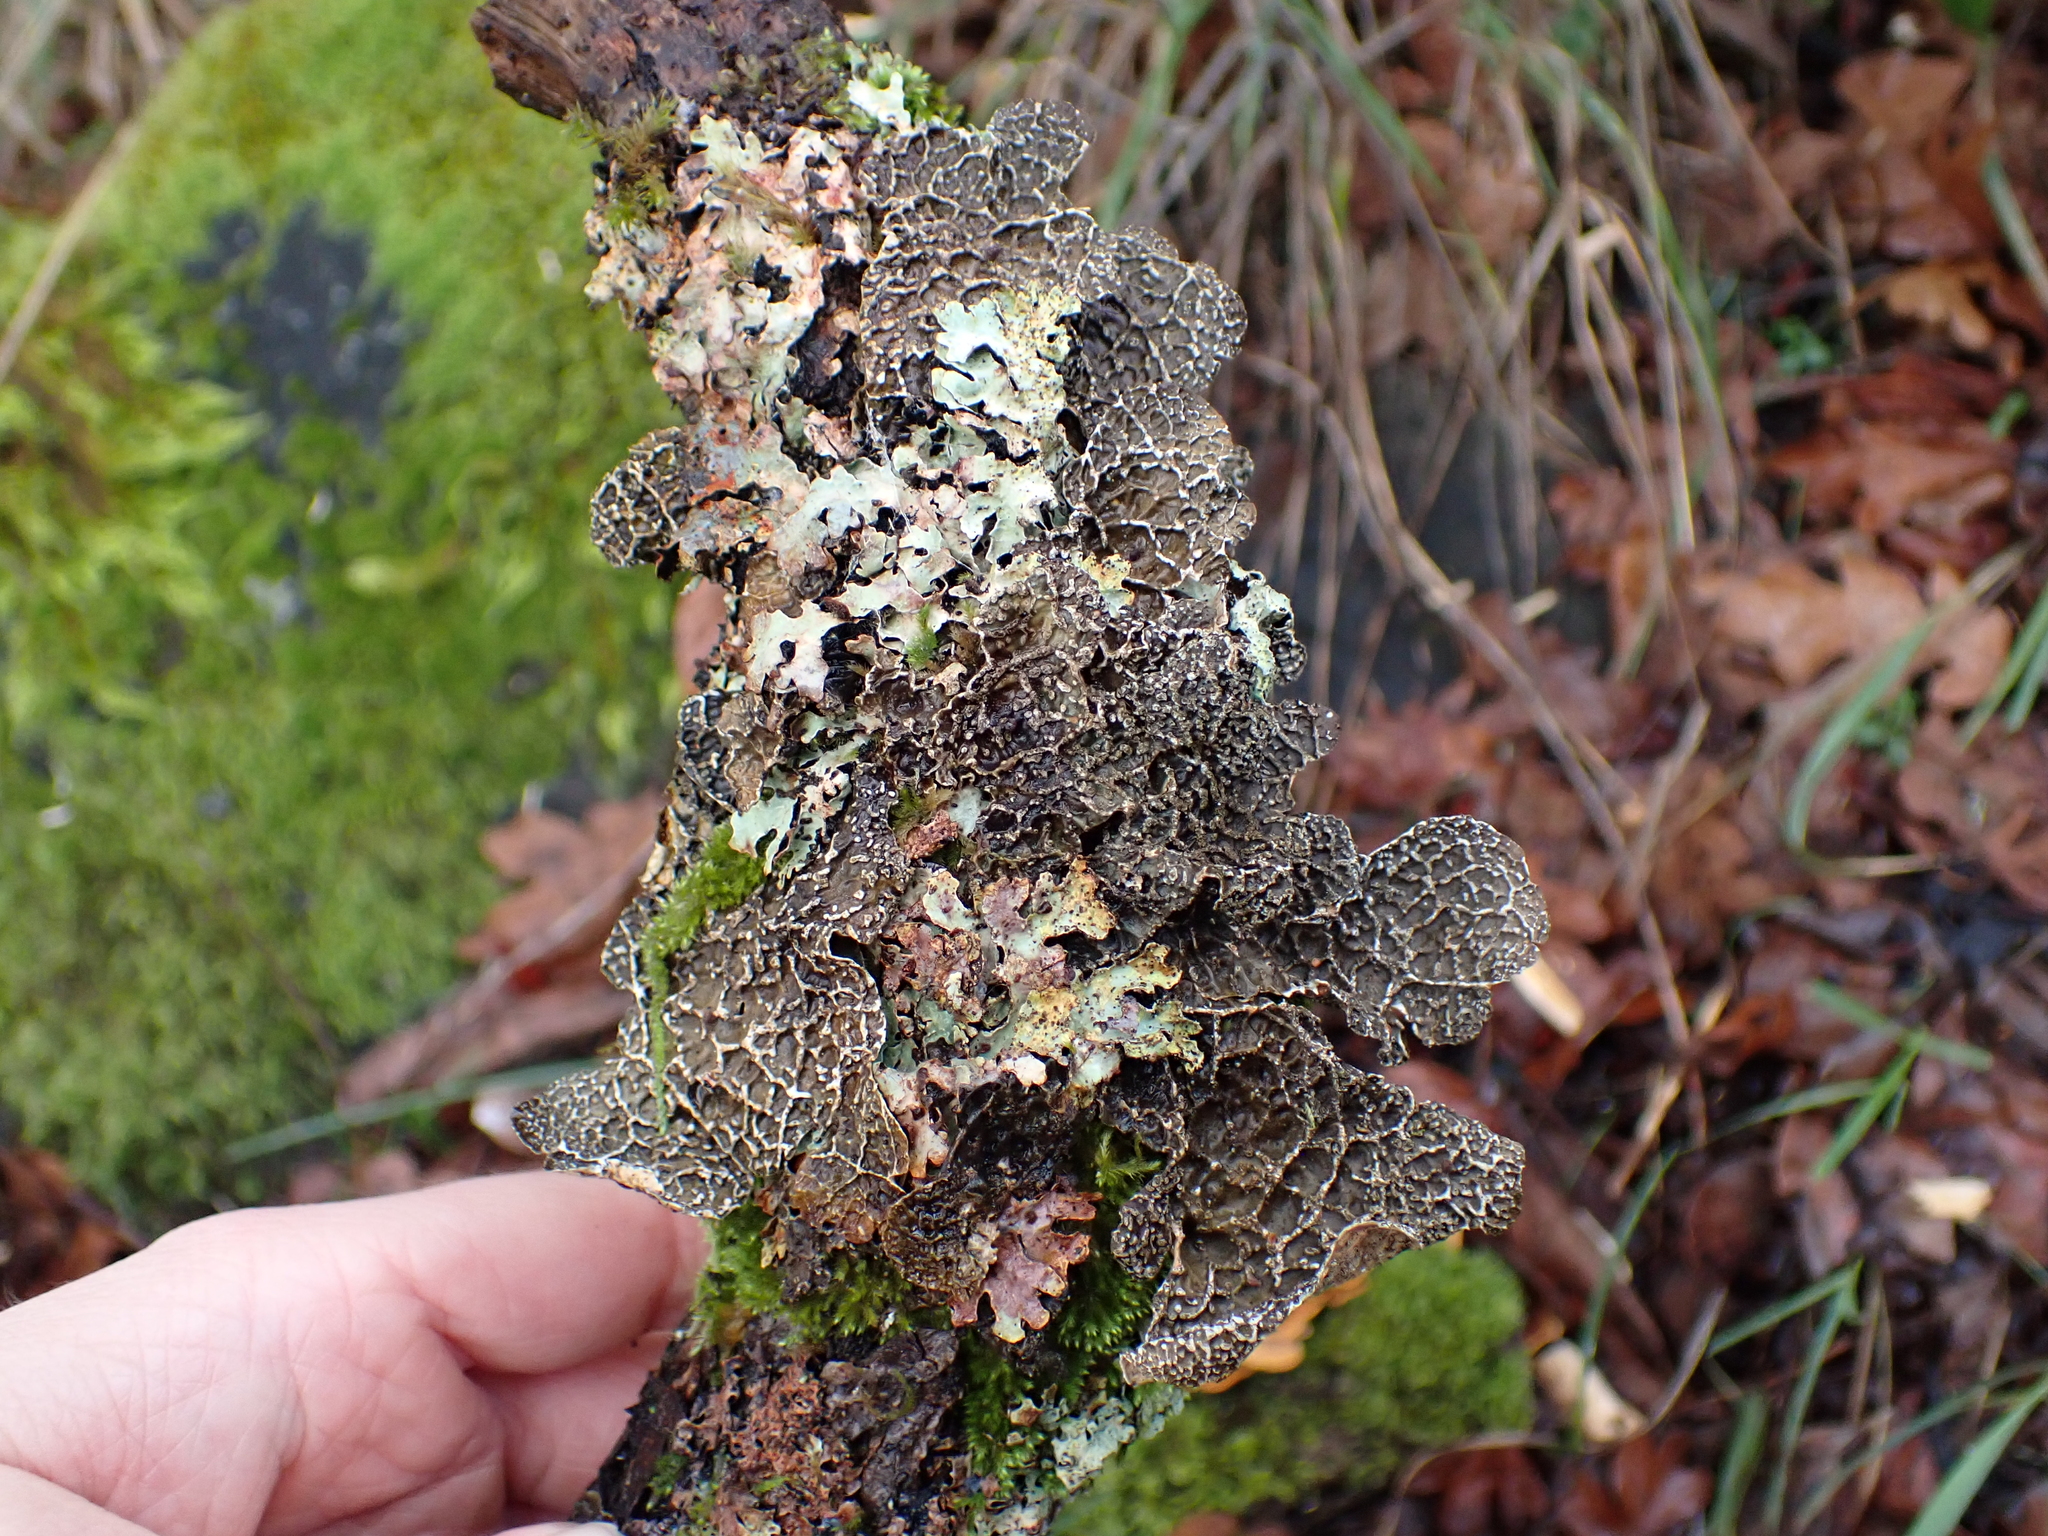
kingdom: Fungi
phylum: Ascomycota
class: Lecanoromycetes
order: Peltigerales
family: Lobariaceae
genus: Lobaria
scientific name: Lobaria anomala
